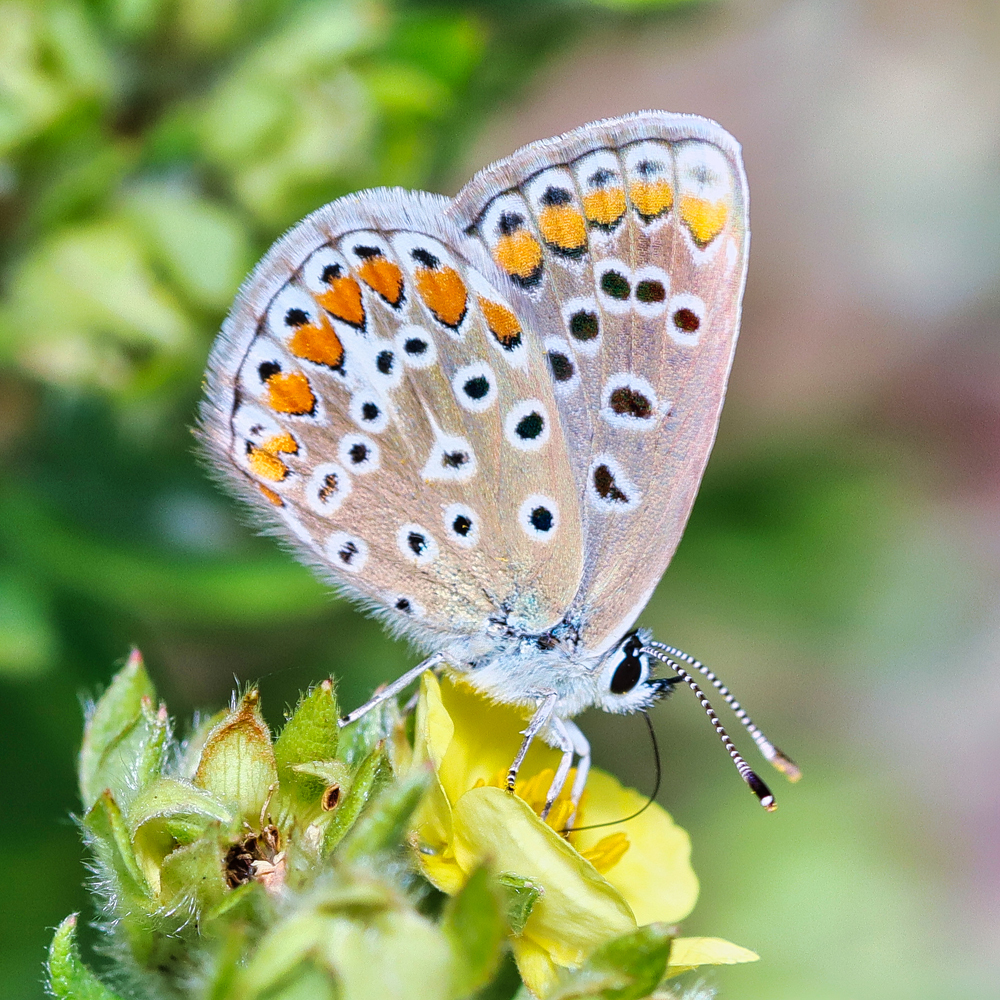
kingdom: Animalia
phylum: Arthropoda
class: Insecta
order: Lepidoptera
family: Lycaenidae
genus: Polyommatus
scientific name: Polyommatus icarus
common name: Common blue
